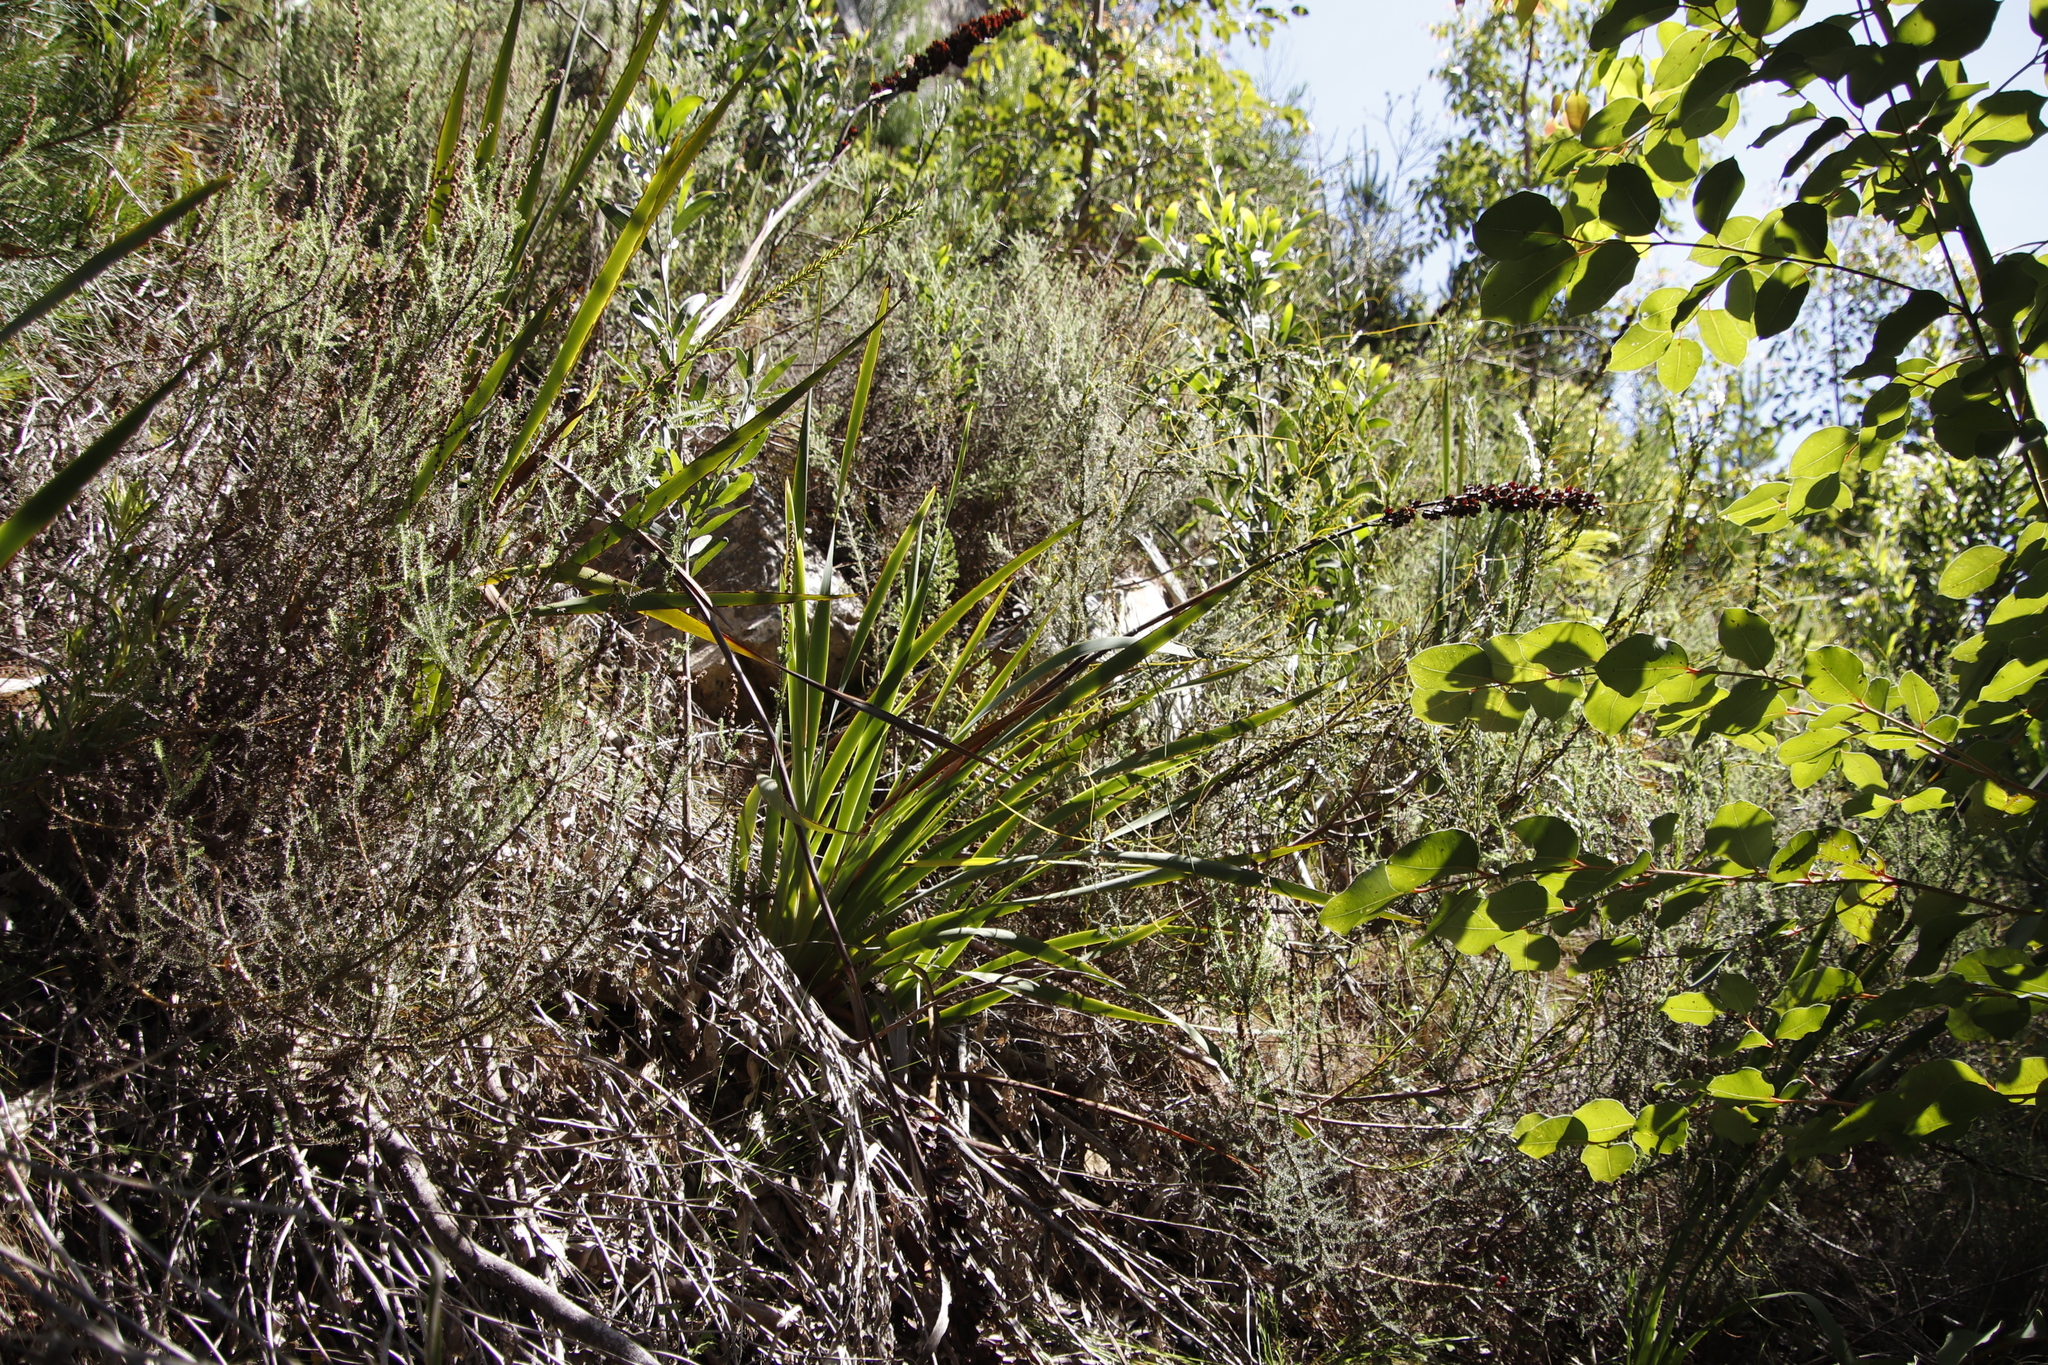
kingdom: Plantae
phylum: Tracheophyta
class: Liliopsida
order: Asparagales
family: Iridaceae
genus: Aristea
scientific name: Aristea capitata
